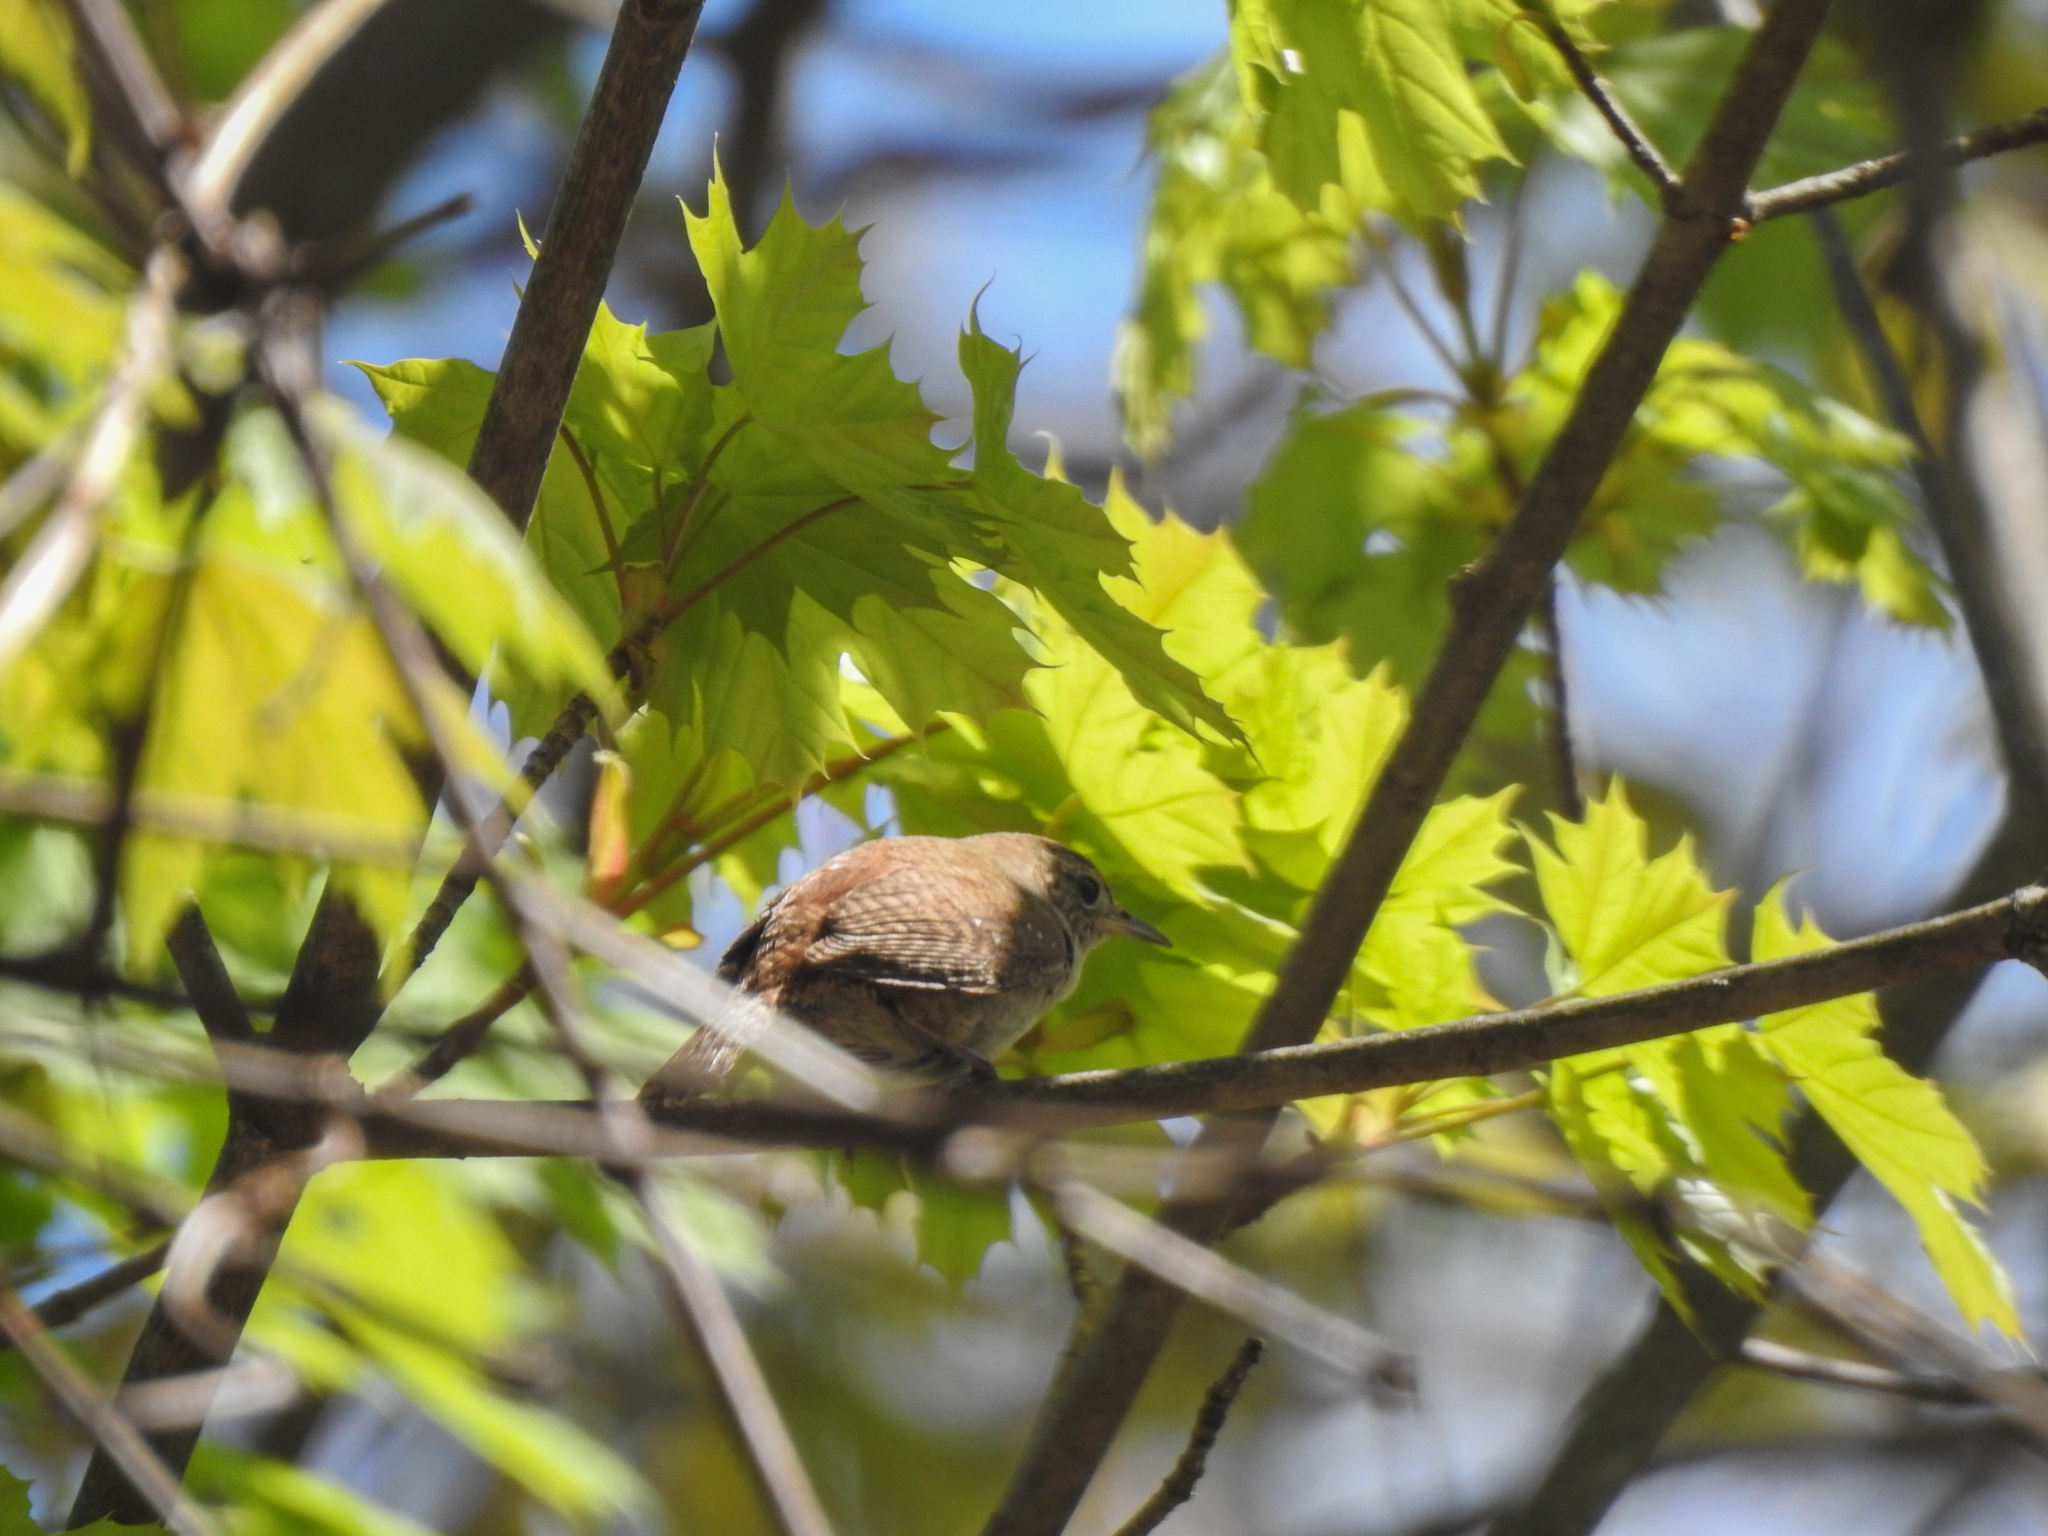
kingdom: Animalia
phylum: Chordata
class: Aves
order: Passeriformes
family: Troglodytidae
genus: Troglodytes
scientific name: Troglodytes aedon
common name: House wren
